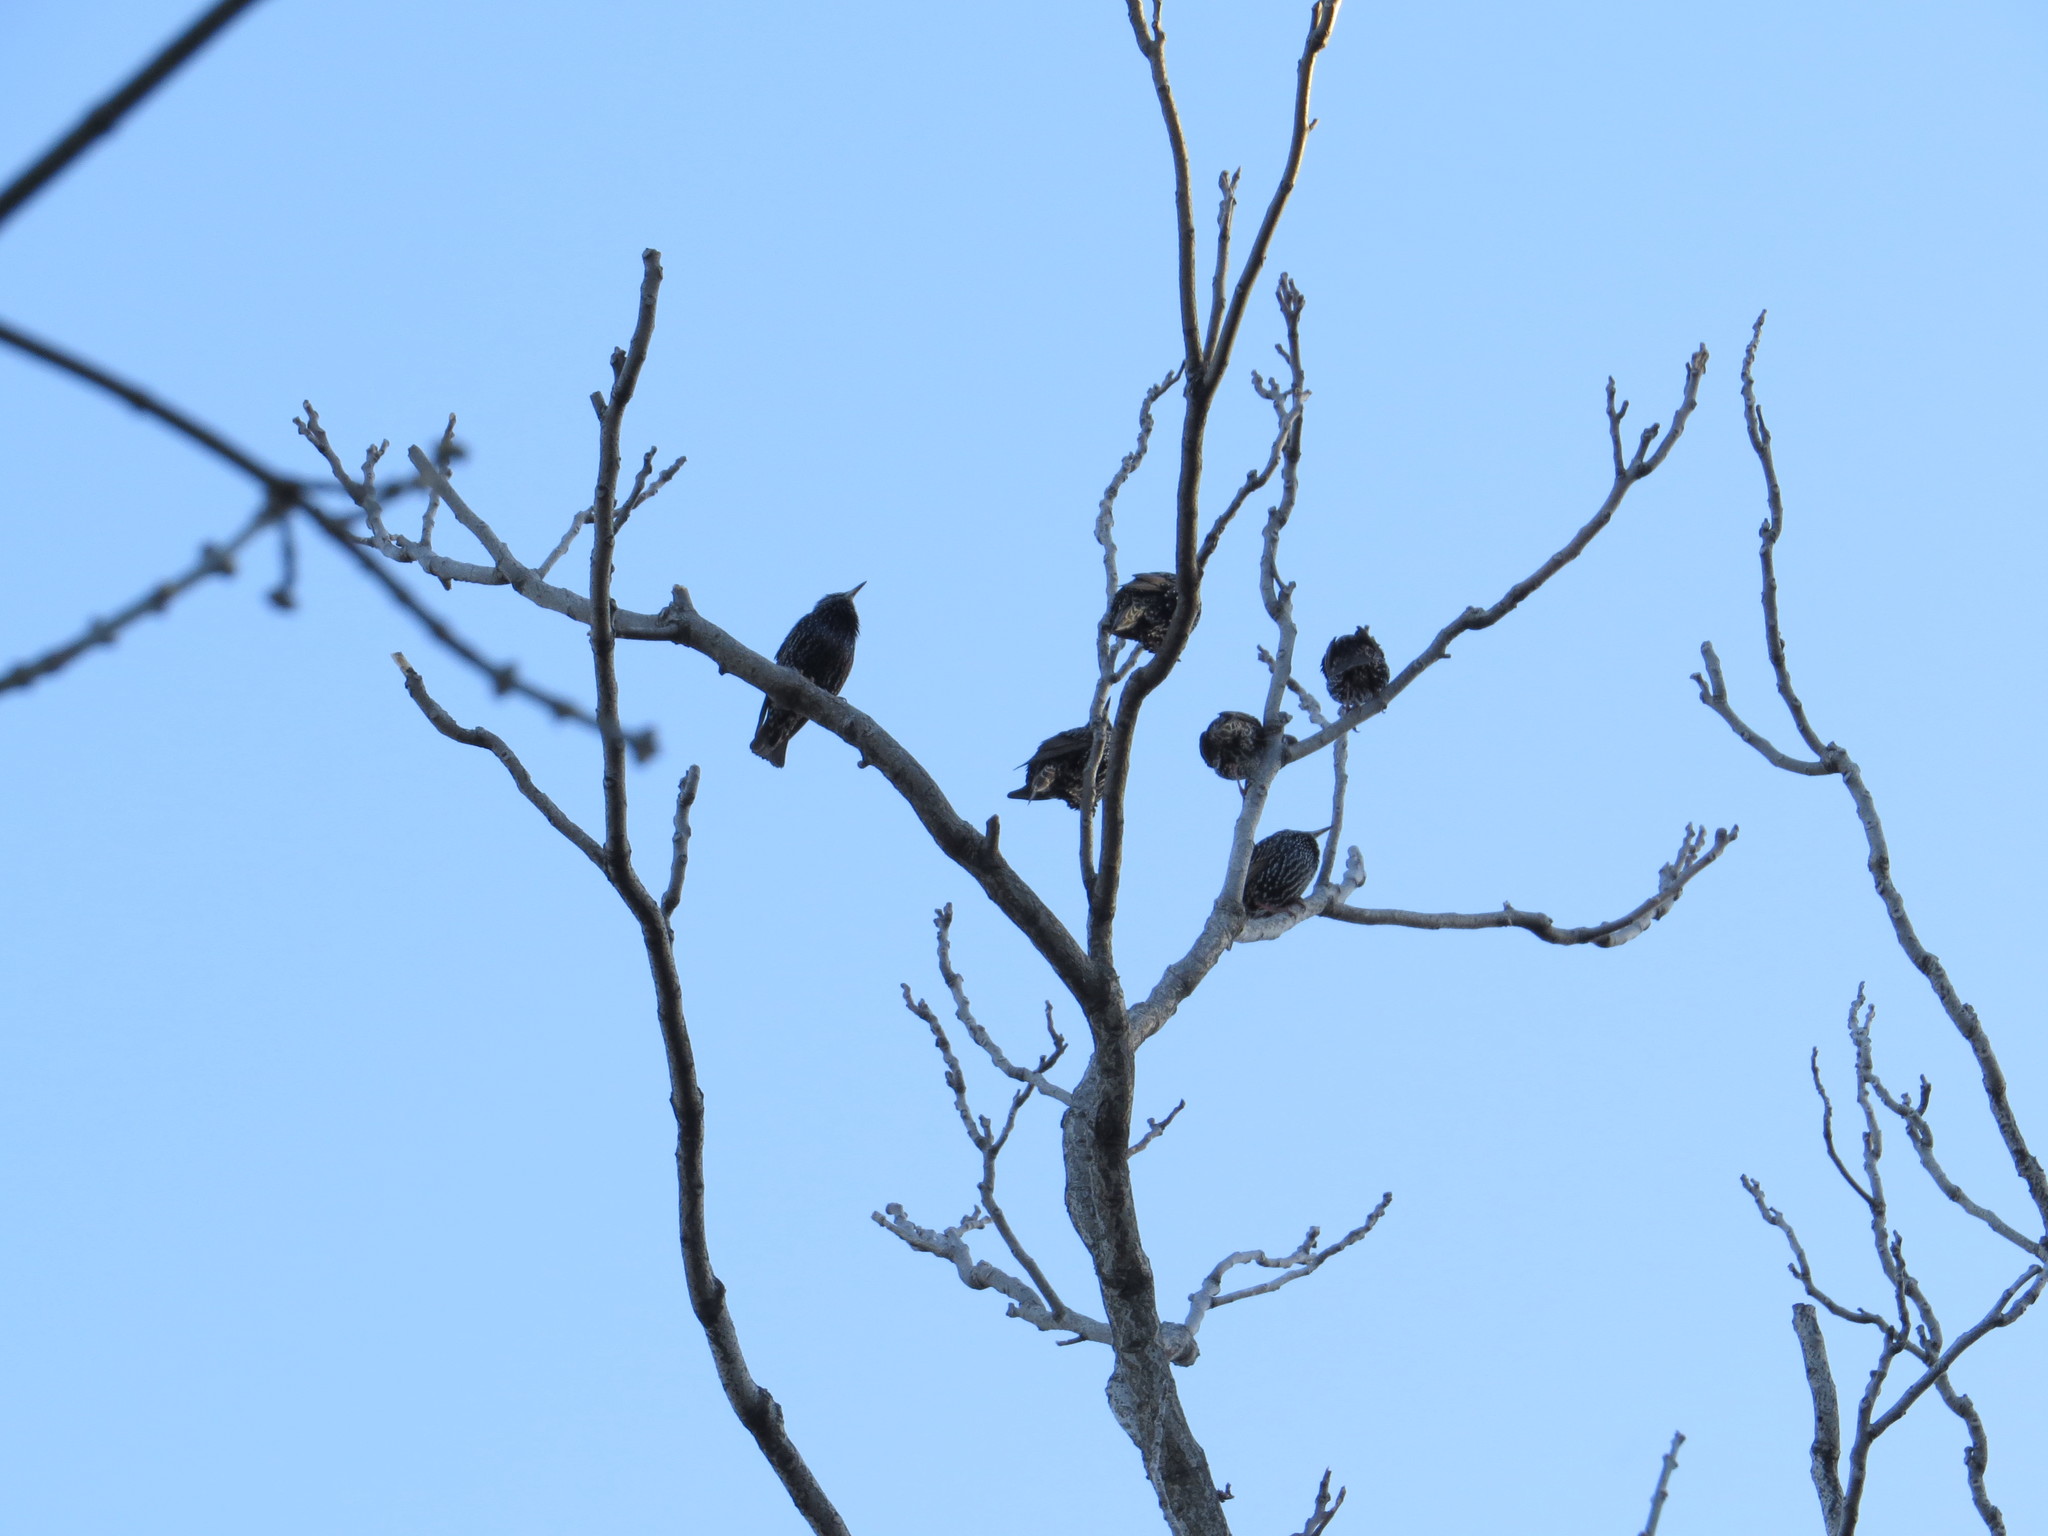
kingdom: Animalia
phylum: Chordata
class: Aves
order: Passeriformes
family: Sturnidae
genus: Sturnus
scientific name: Sturnus vulgaris
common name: Common starling
